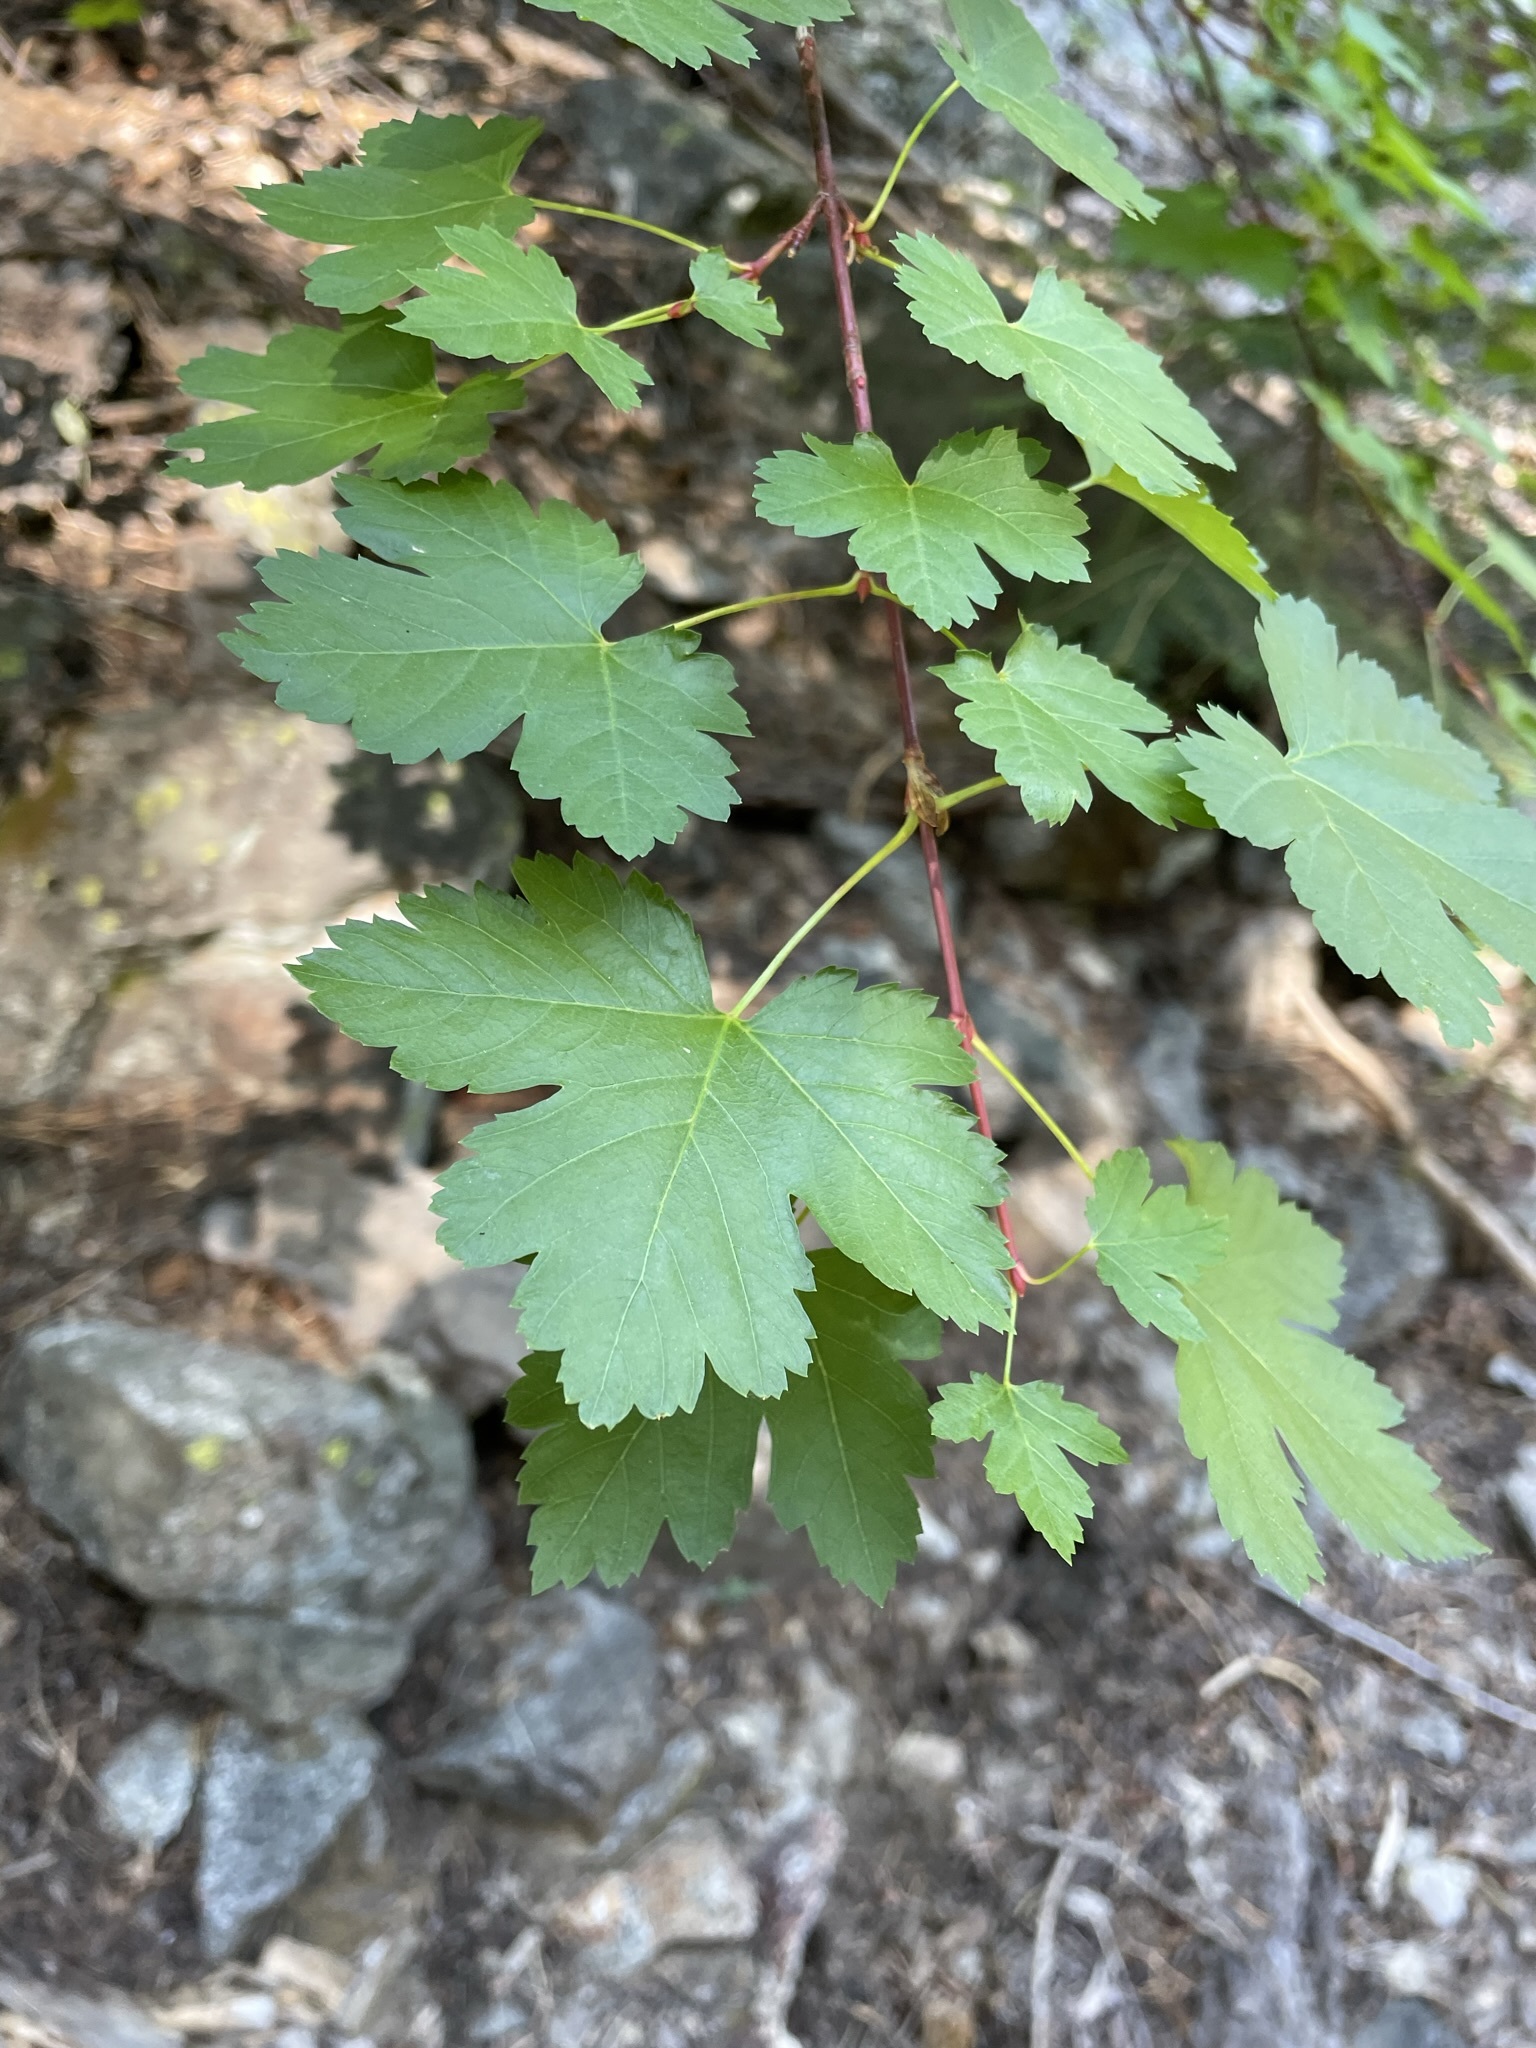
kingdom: Plantae
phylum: Tracheophyta
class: Magnoliopsida
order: Sapindales
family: Sapindaceae
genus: Acer
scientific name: Acer glabrum
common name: Rocky mountain maple
